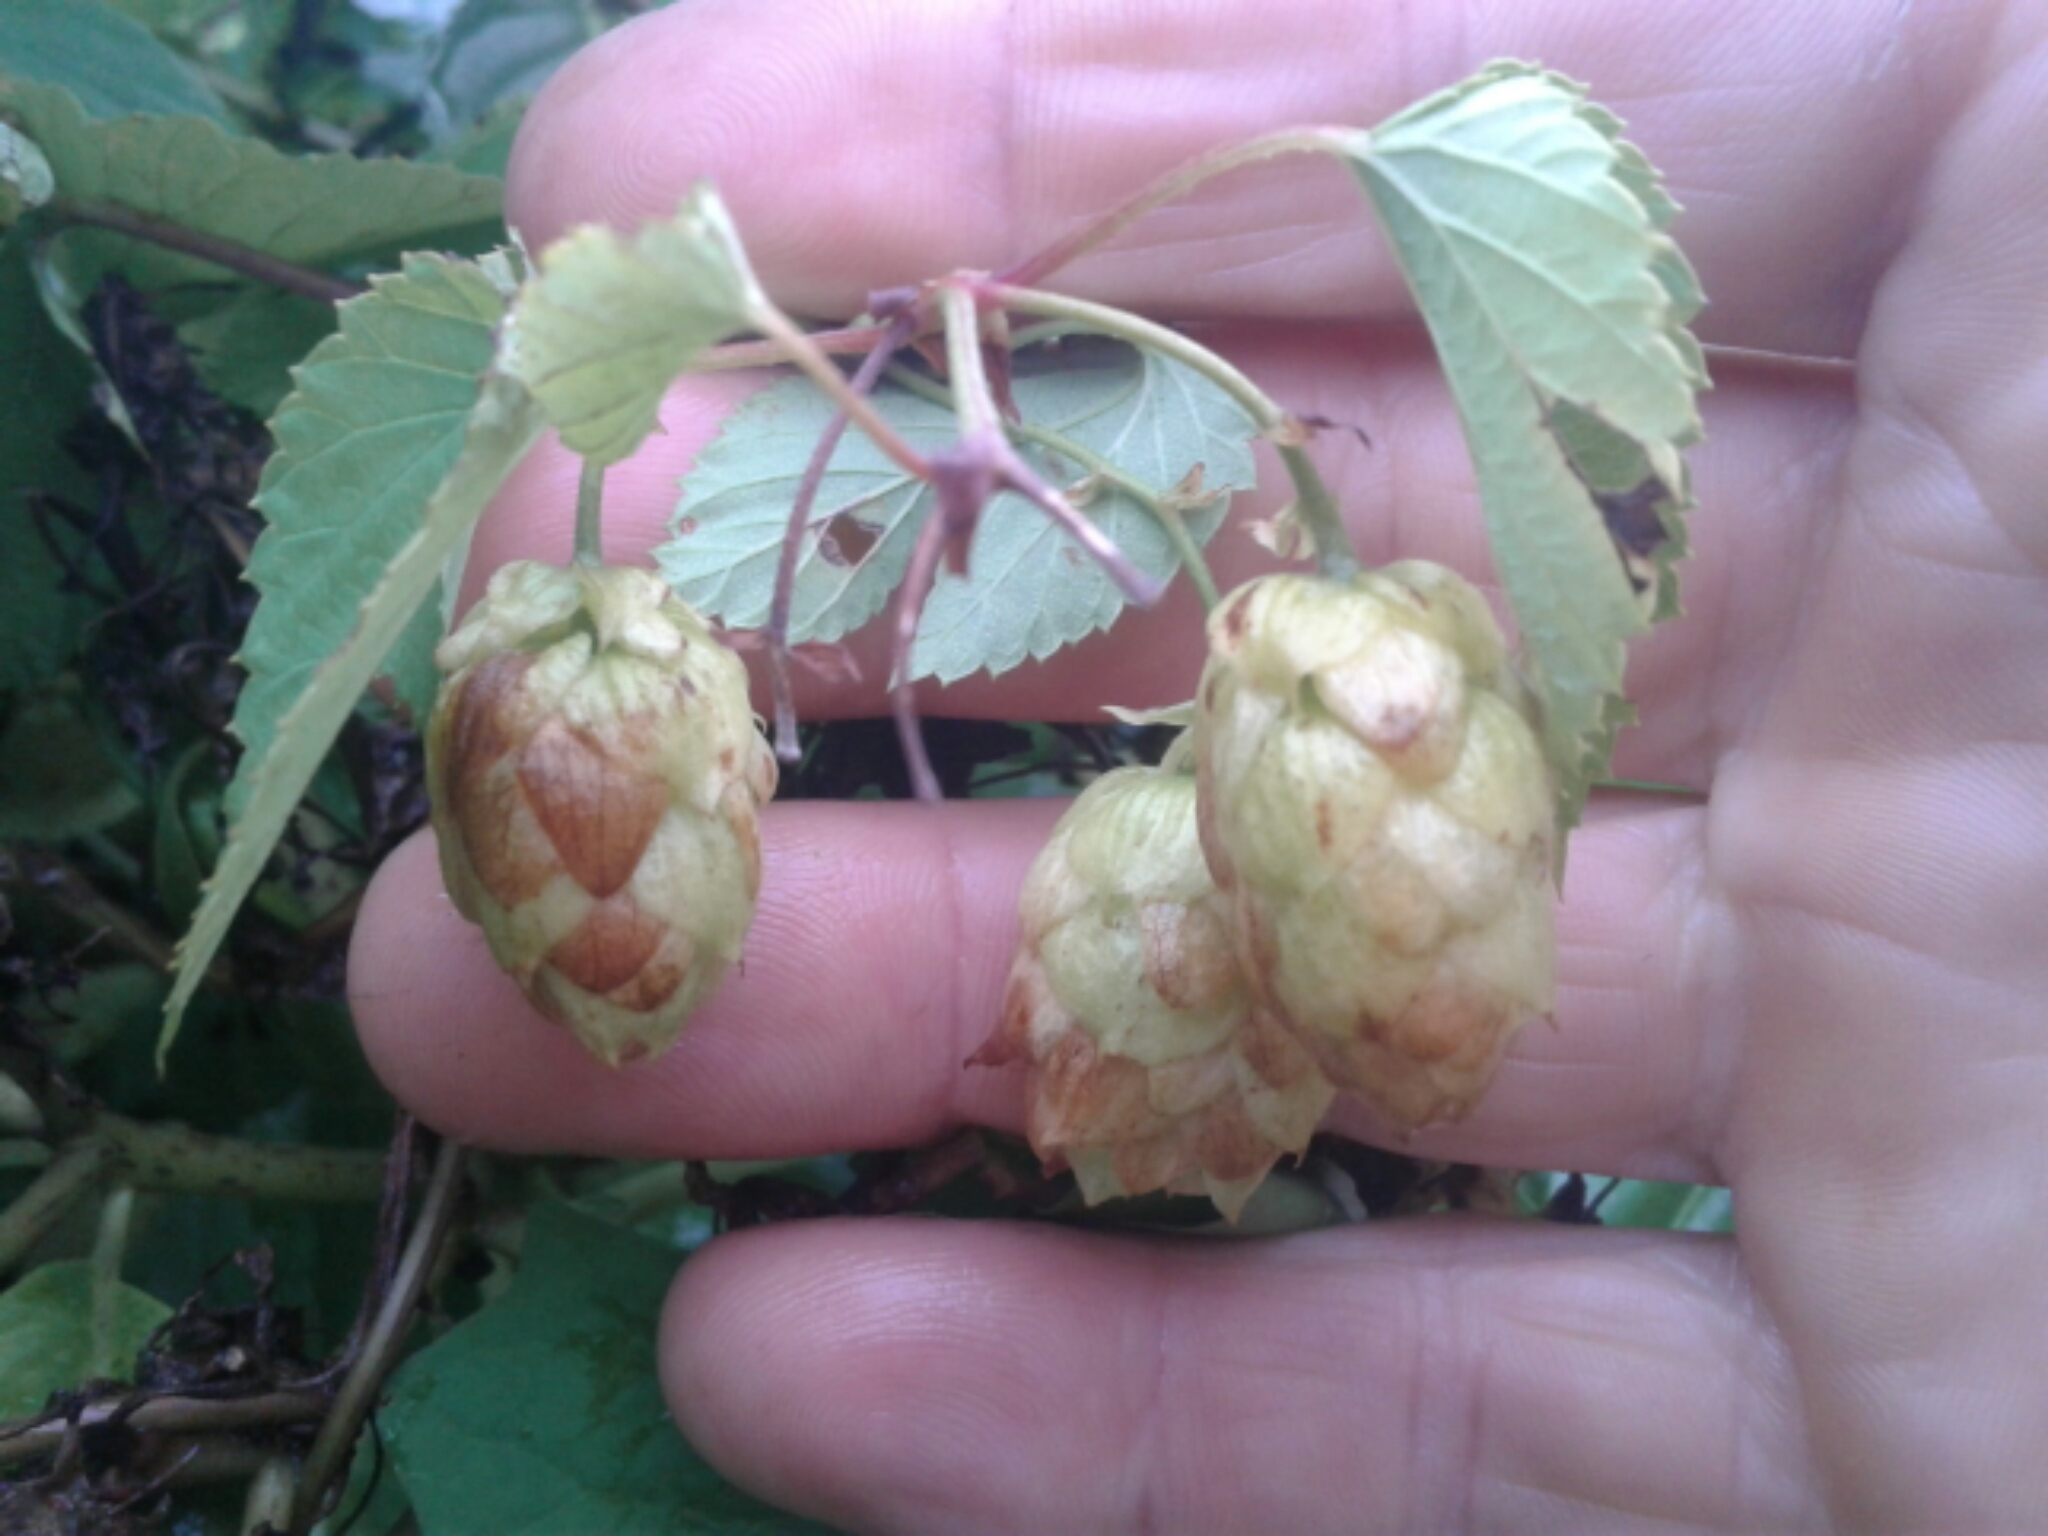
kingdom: Plantae
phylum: Tracheophyta
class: Magnoliopsida
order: Rosales
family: Cannabaceae
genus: Humulus
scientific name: Humulus lupulus
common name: Hop
